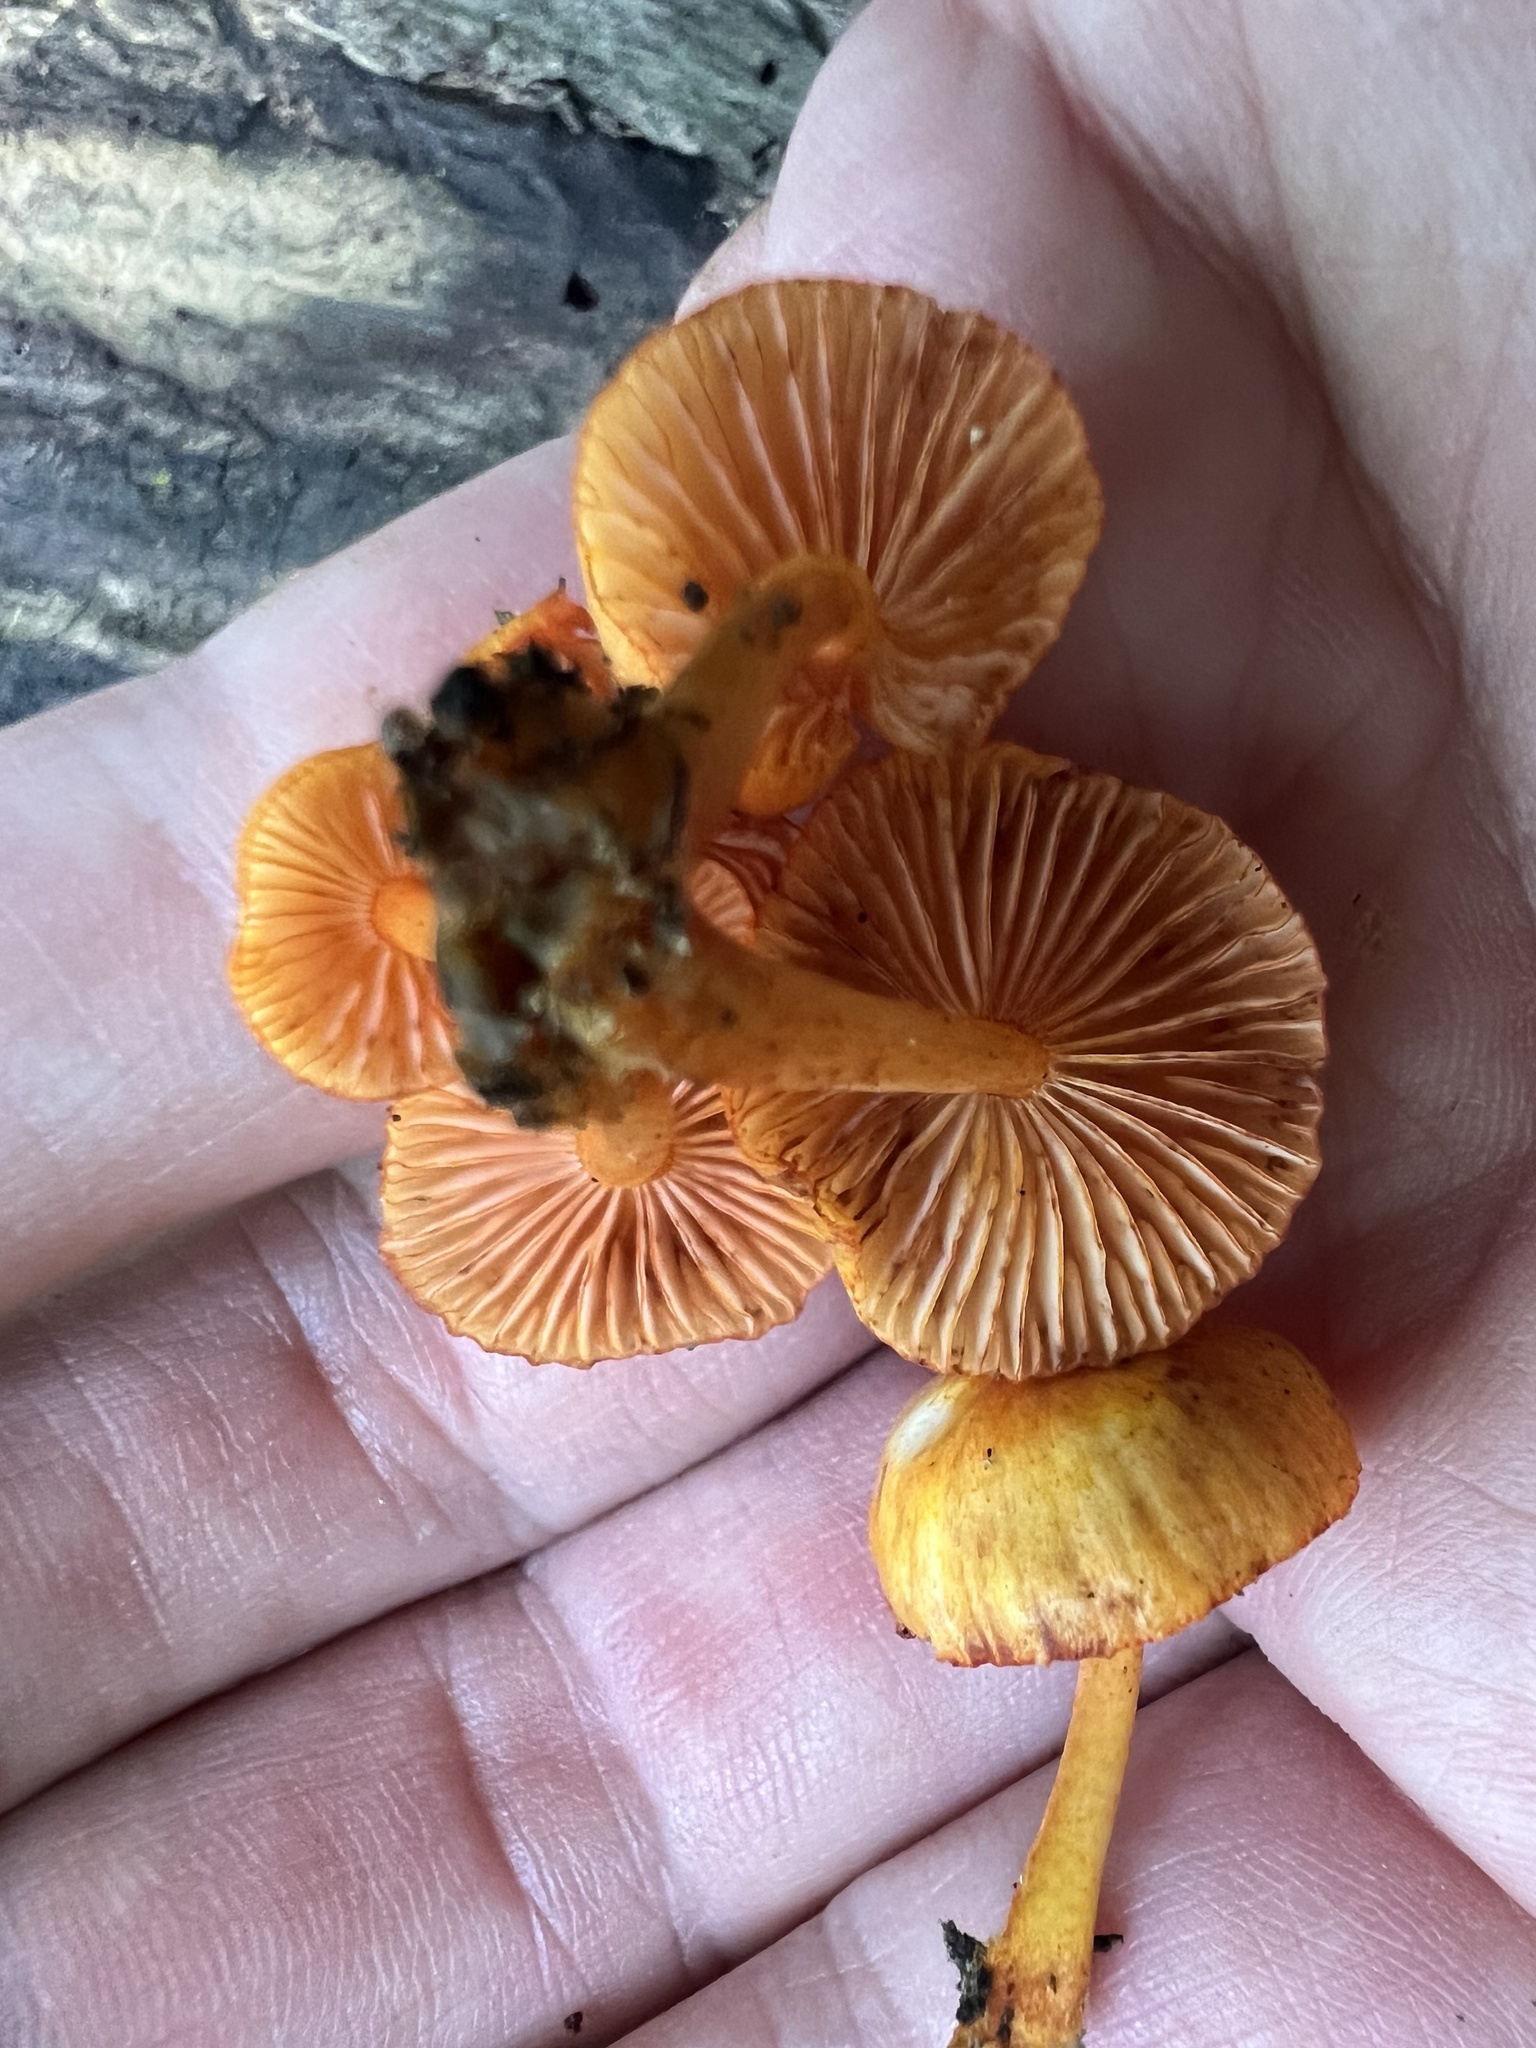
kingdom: Fungi
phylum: Basidiomycota
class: Agaricomycetes
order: Agaricales
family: Mycenaceae
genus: Mycena
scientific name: Mycena leaiana
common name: Orange mycena
